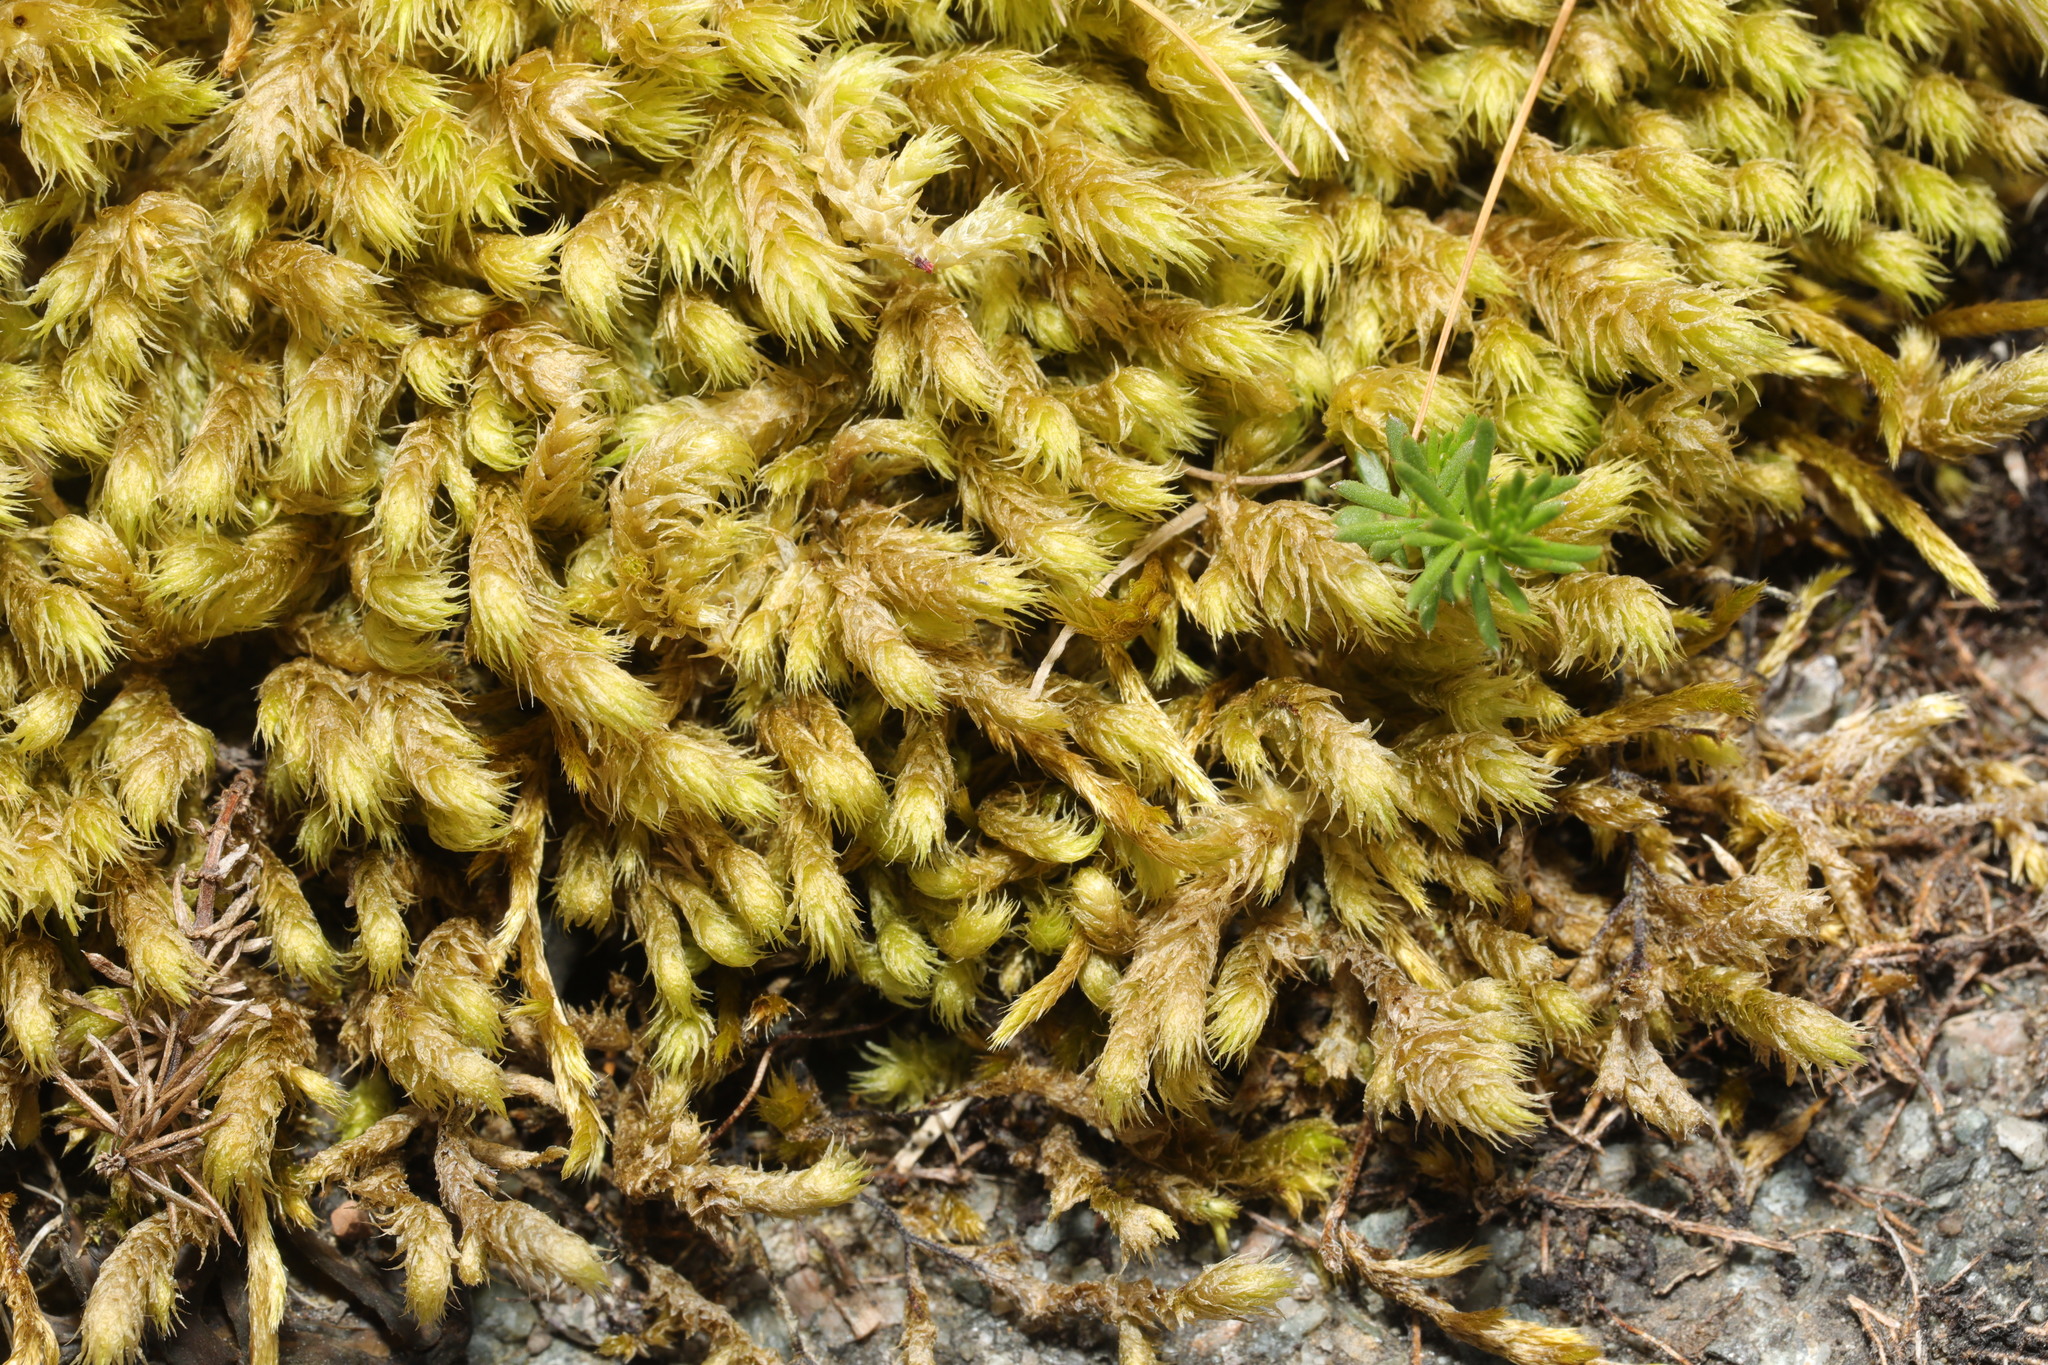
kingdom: Plantae
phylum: Bryophyta
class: Bryopsida
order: Hypnales
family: Rhytidiaceae
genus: Rhytidium
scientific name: Rhytidium rugosum
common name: Wrinkle-leaved moss
